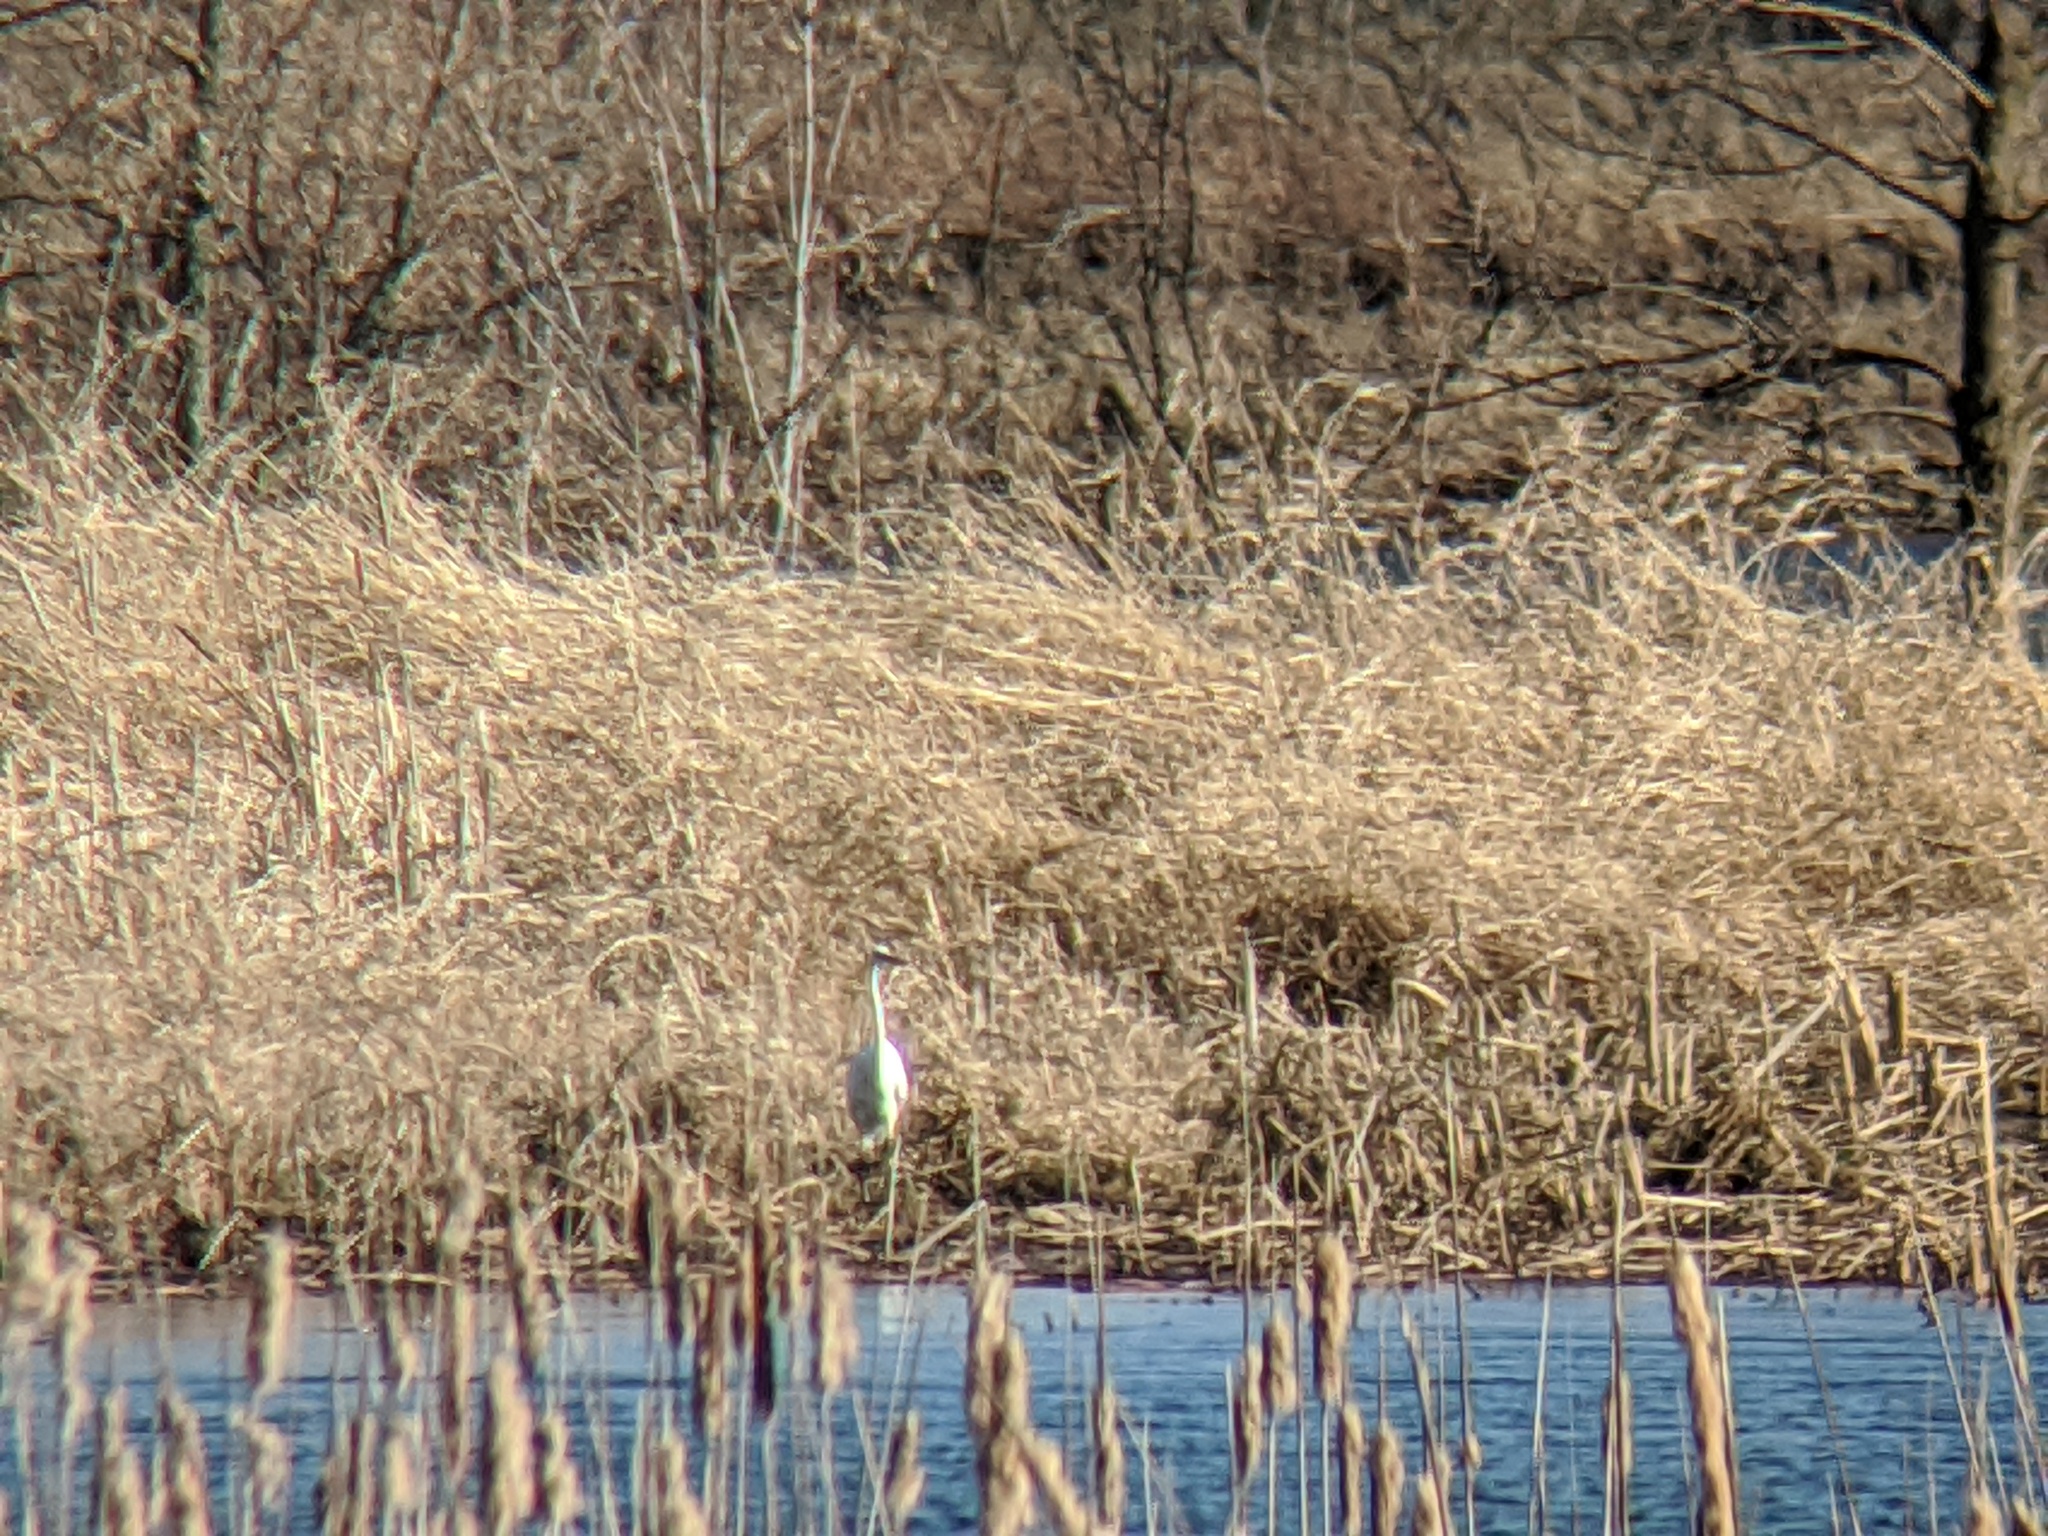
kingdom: Animalia
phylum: Chordata
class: Aves
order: Pelecaniformes
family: Ardeidae
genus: Ardea
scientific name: Ardea alba
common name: Great egret
